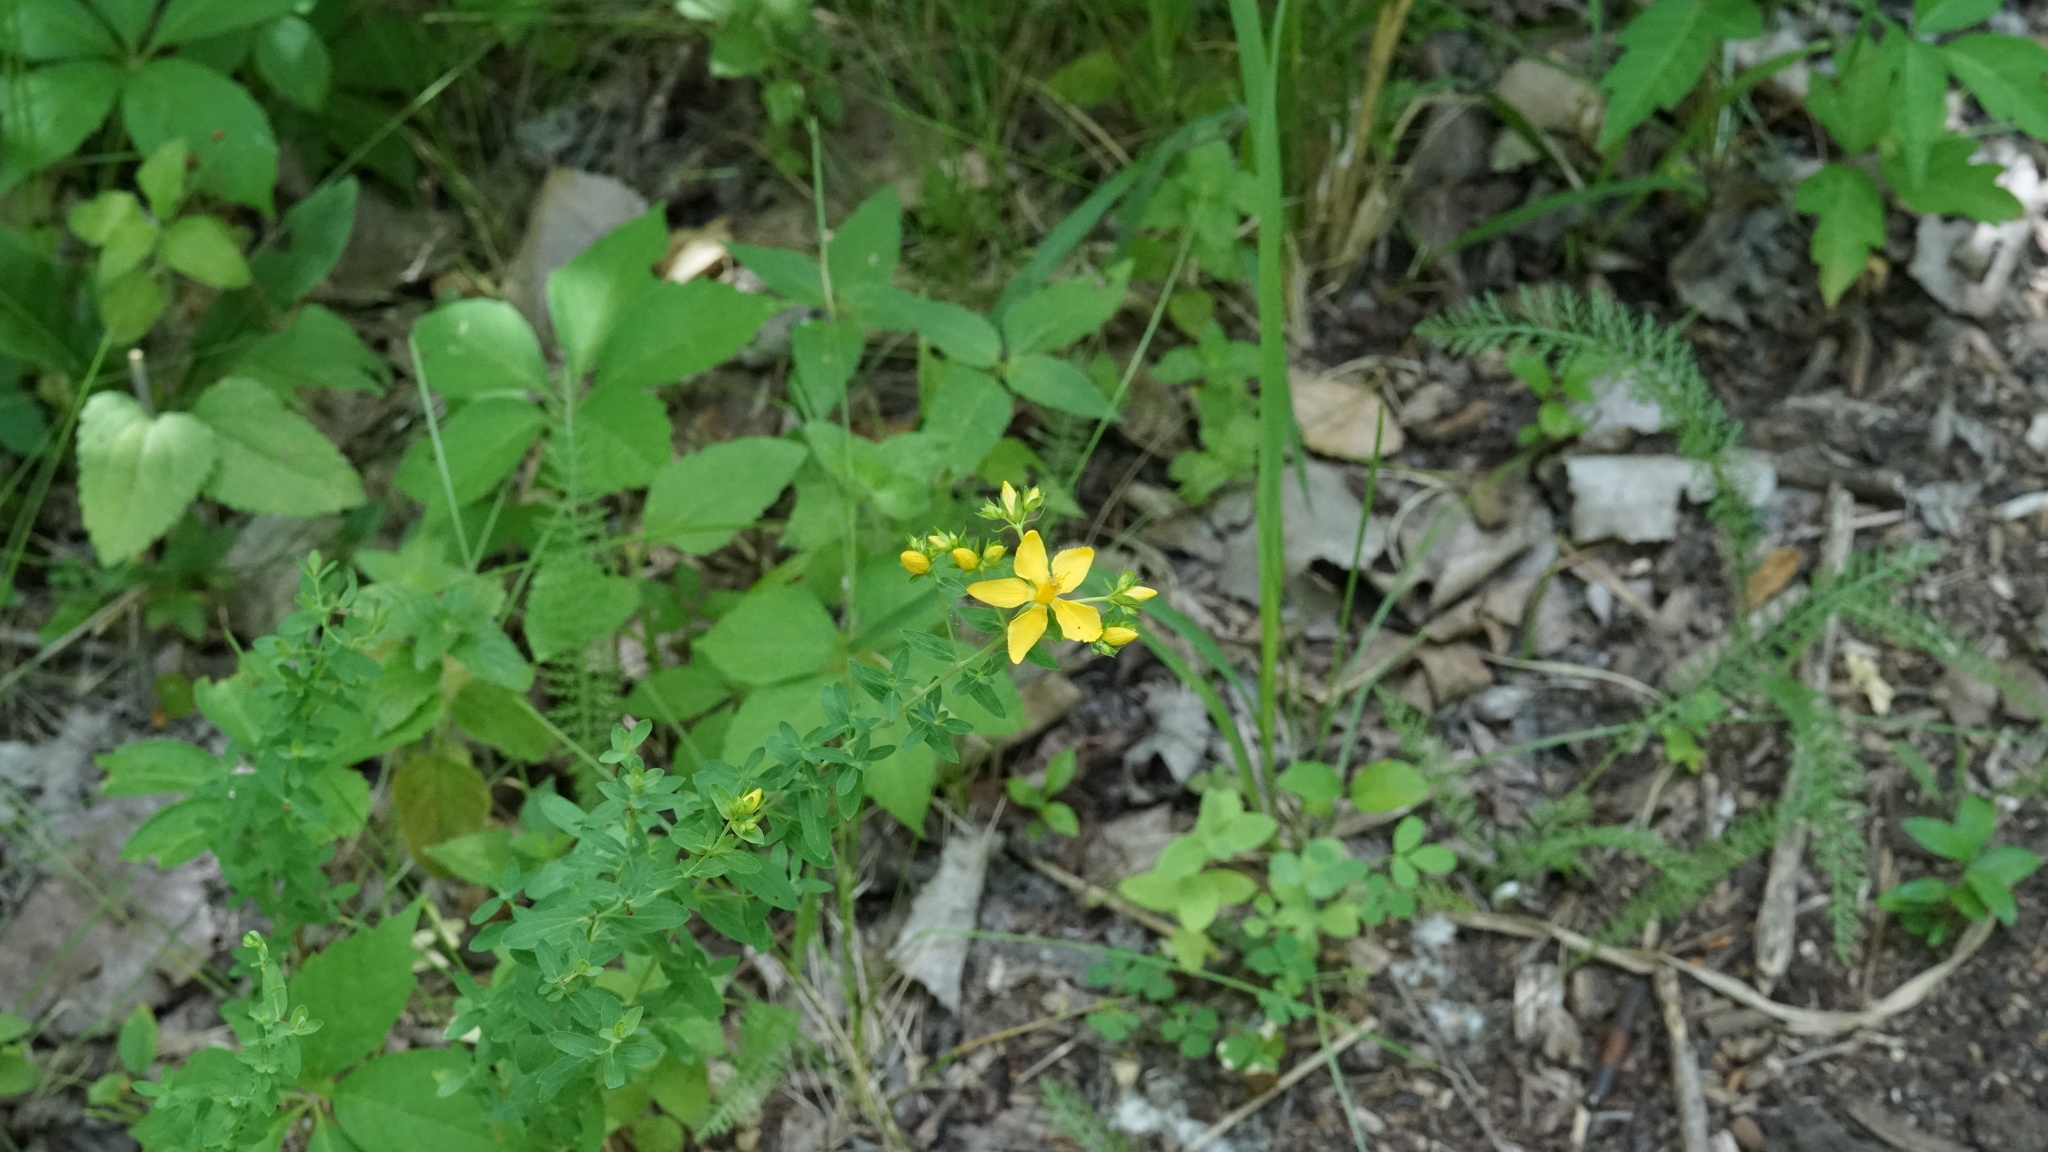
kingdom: Plantae
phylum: Tracheophyta
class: Magnoliopsida
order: Malpighiales
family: Hypericaceae
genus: Hypericum
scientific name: Hypericum perforatum
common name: Common st. johnswort
